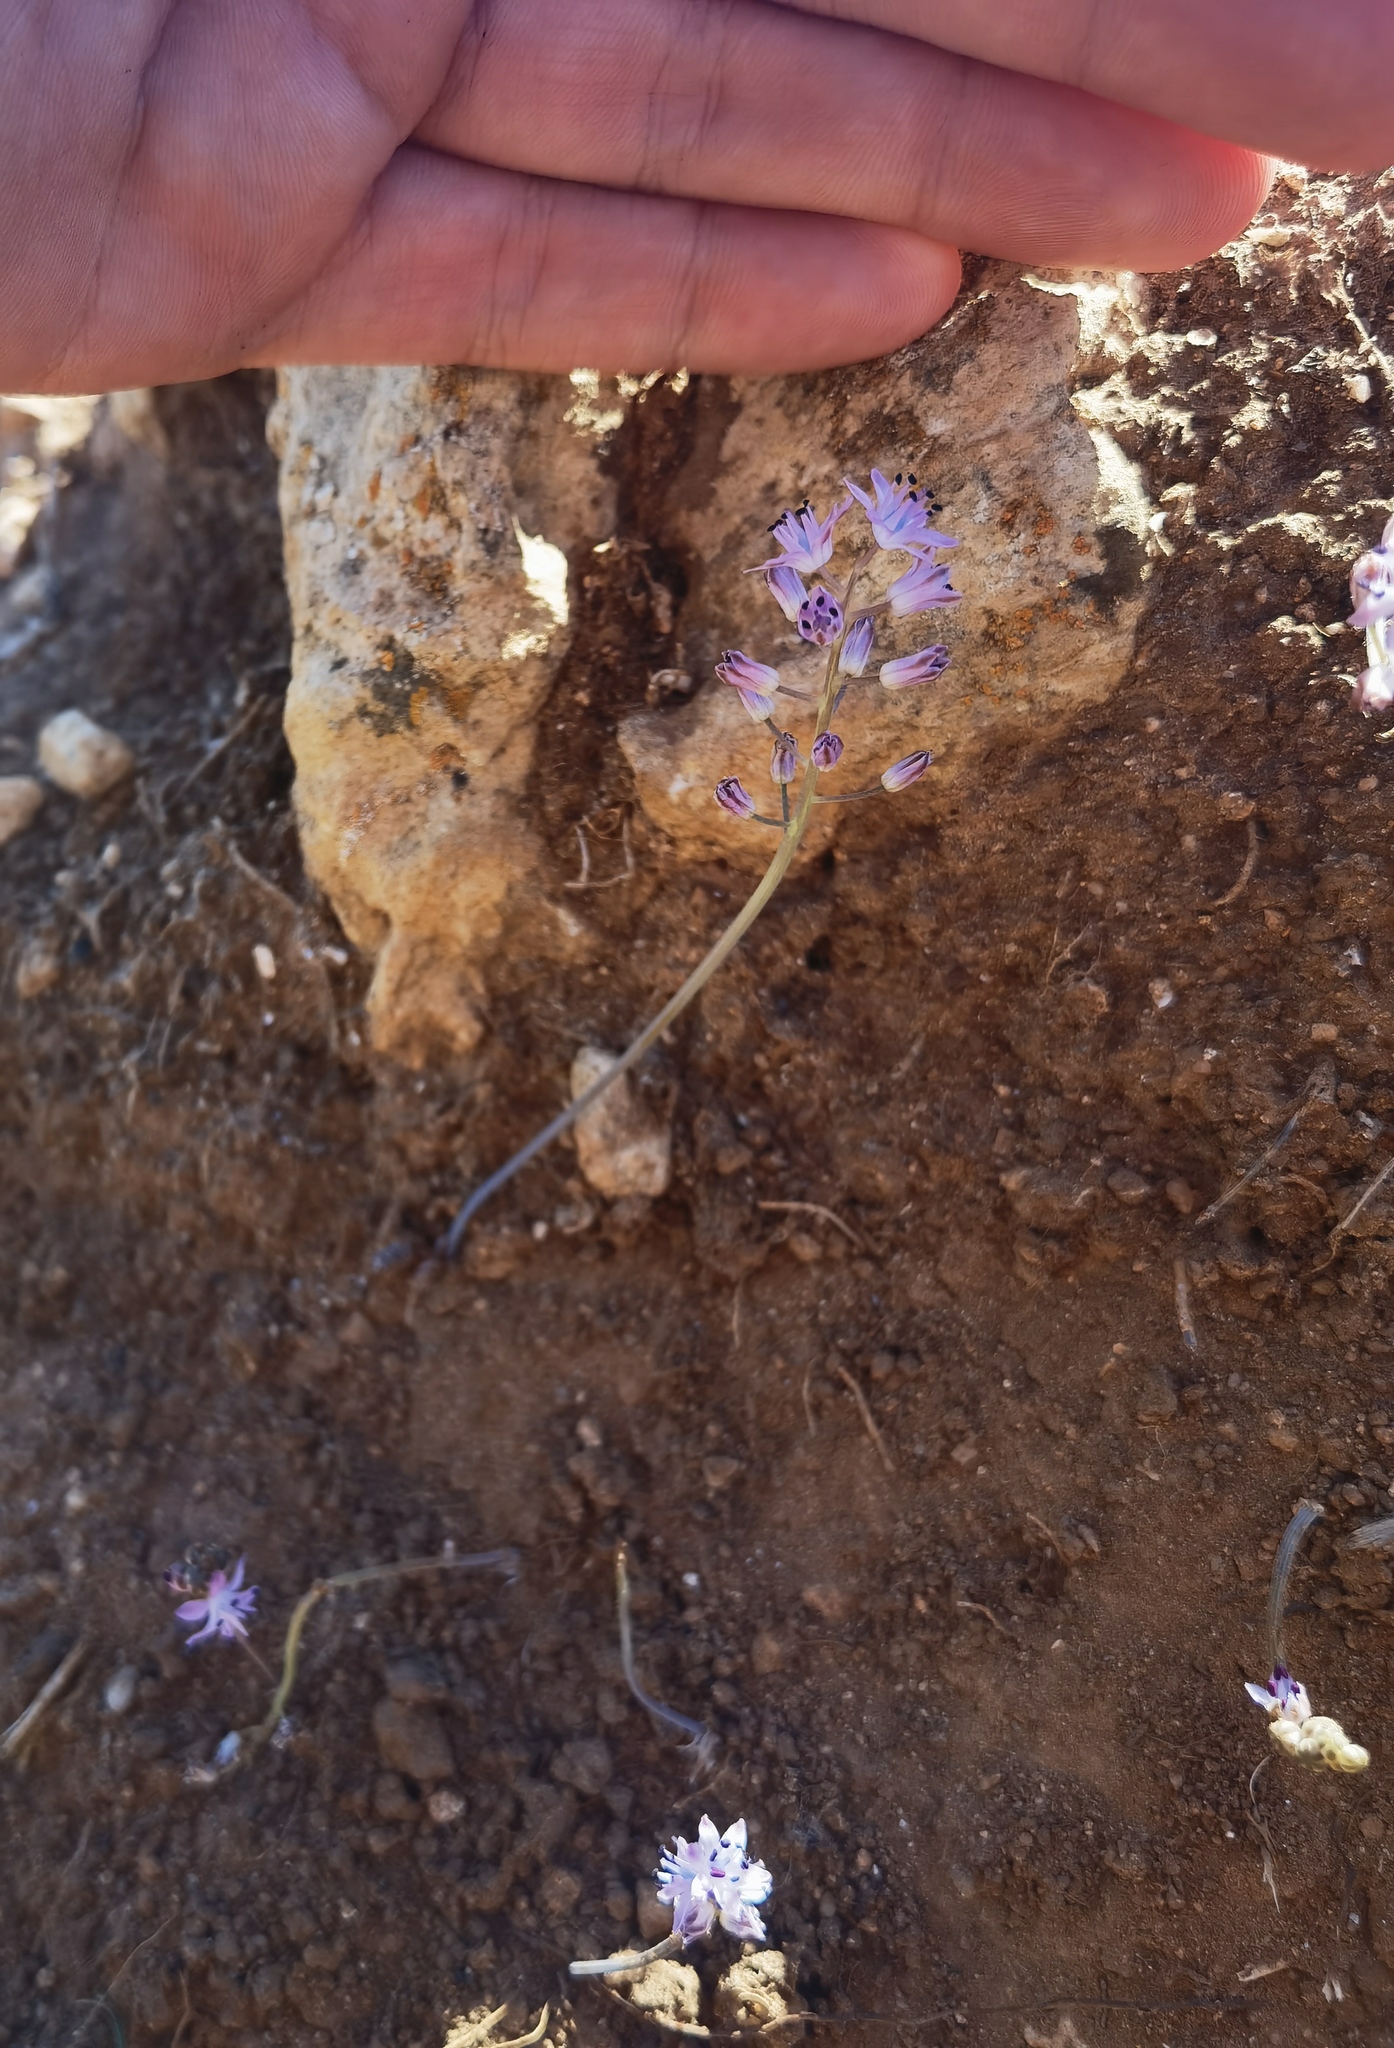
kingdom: Plantae
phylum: Tracheophyta
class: Liliopsida
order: Asparagales
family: Asparagaceae
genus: Prospero
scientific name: Prospero autumnale
